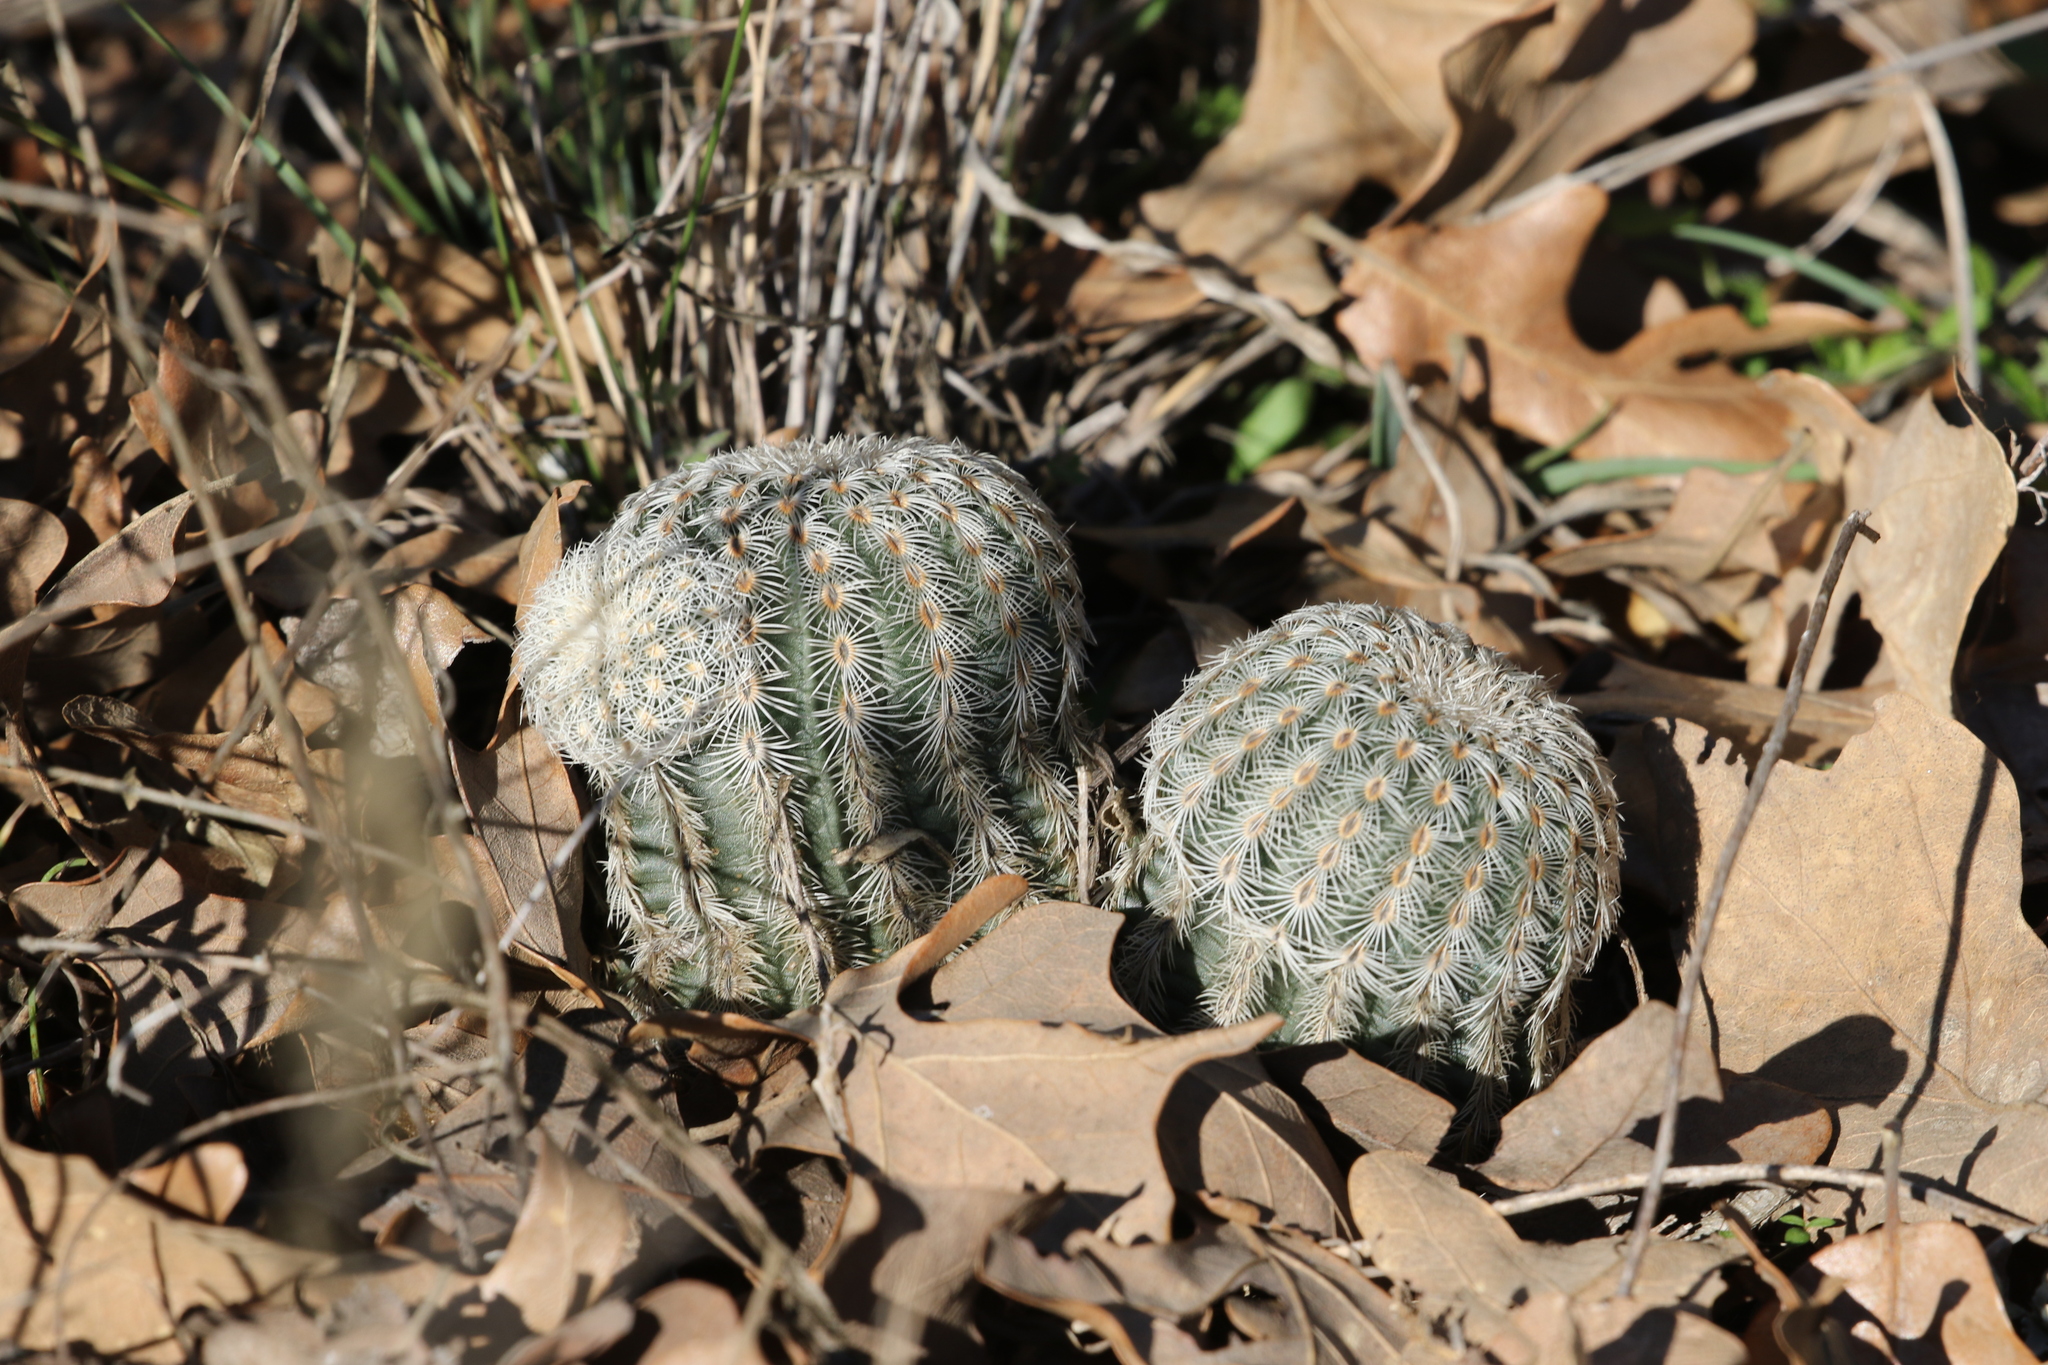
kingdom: Plantae
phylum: Tracheophyta
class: Magnoliopsida
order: Caryophyllales
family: Cactaceae
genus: Echinocereus
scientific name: Echinocereus reichenbachii
